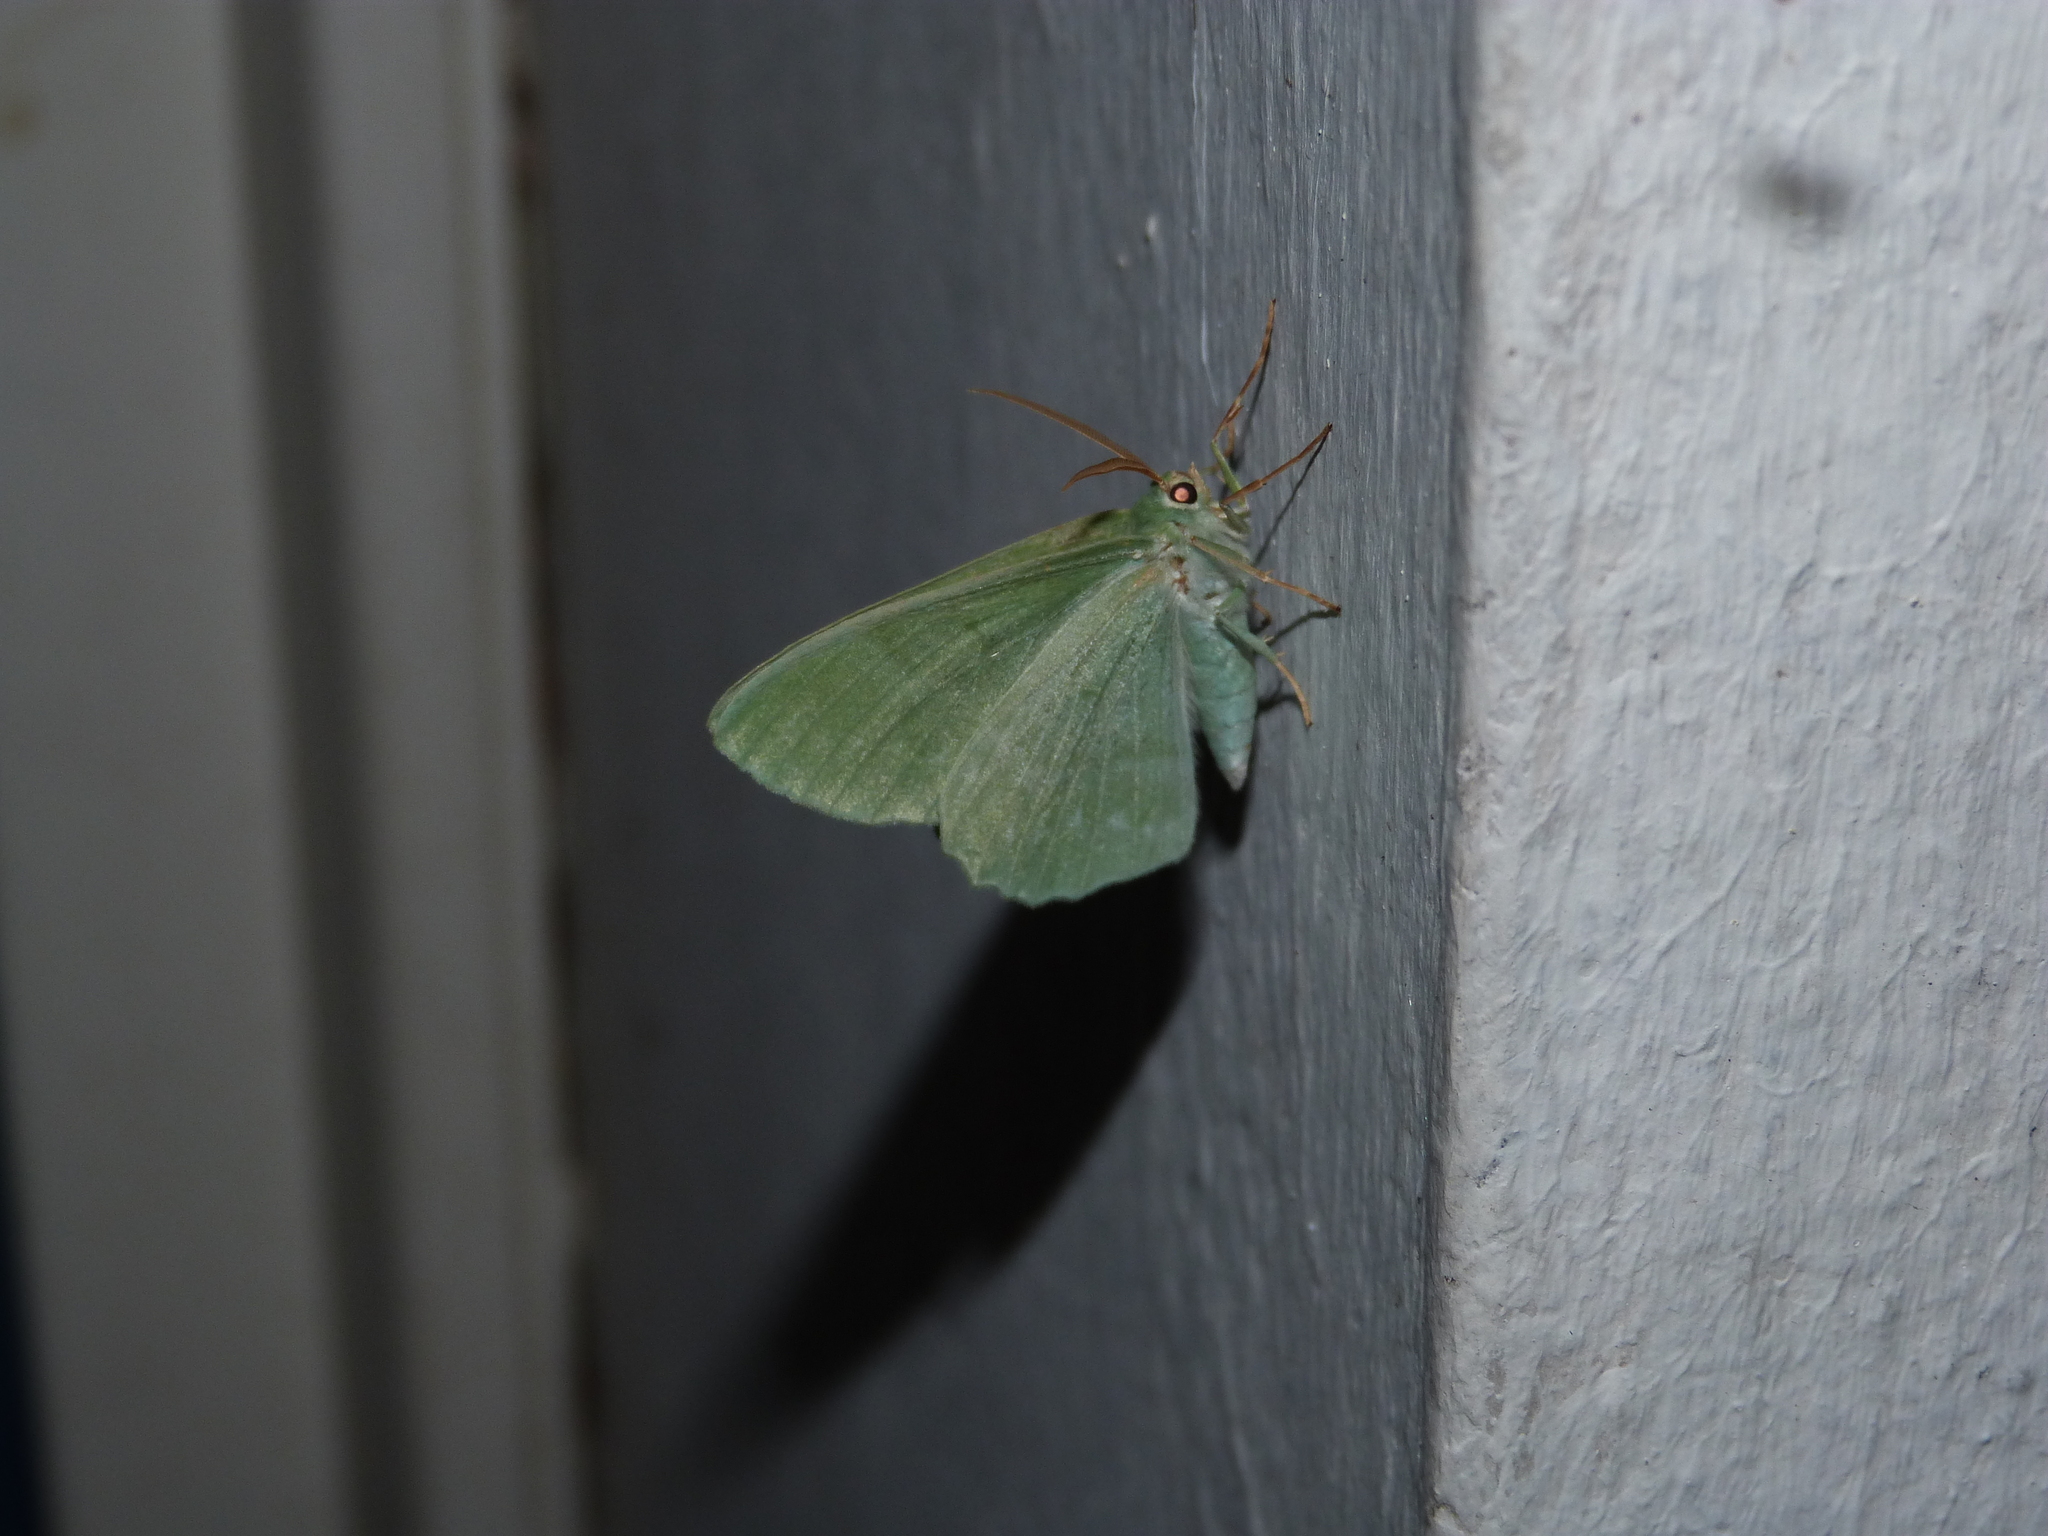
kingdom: Animalia
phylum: Arthropoda
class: Insecta
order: Lepidoptera
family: Geometridae
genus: Geometra
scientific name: Geometra papilionaria
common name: Large emerald
